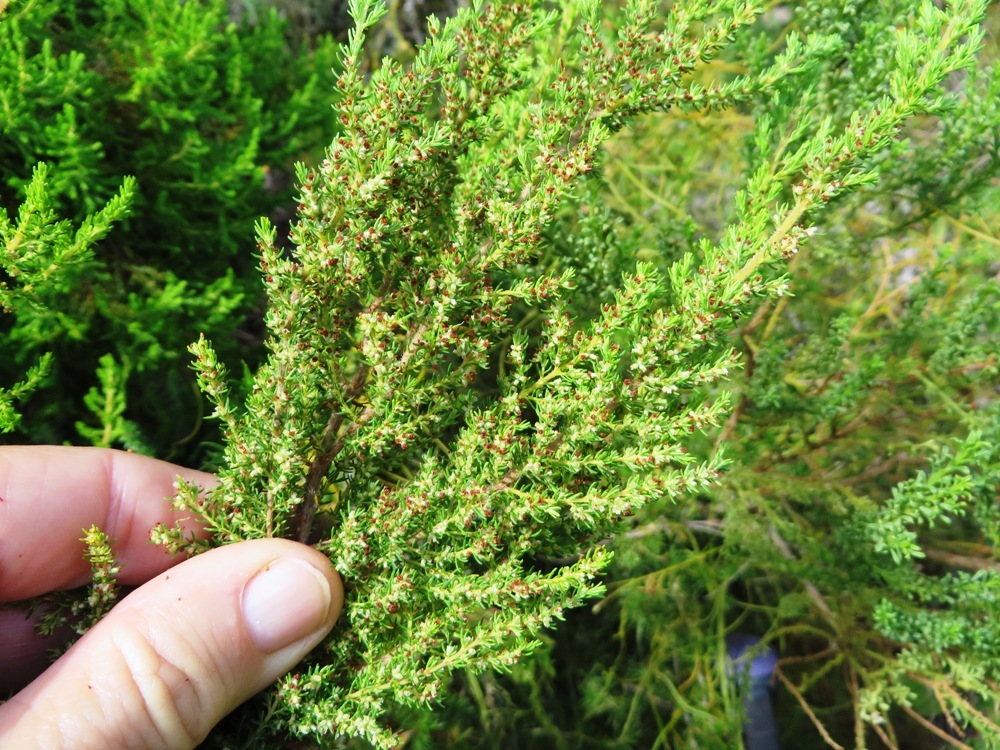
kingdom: Plantae
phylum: Tracheophyta
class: Magnoliopsida
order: Ericales
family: Ericaceae
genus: Erica
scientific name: Erica muscosa
